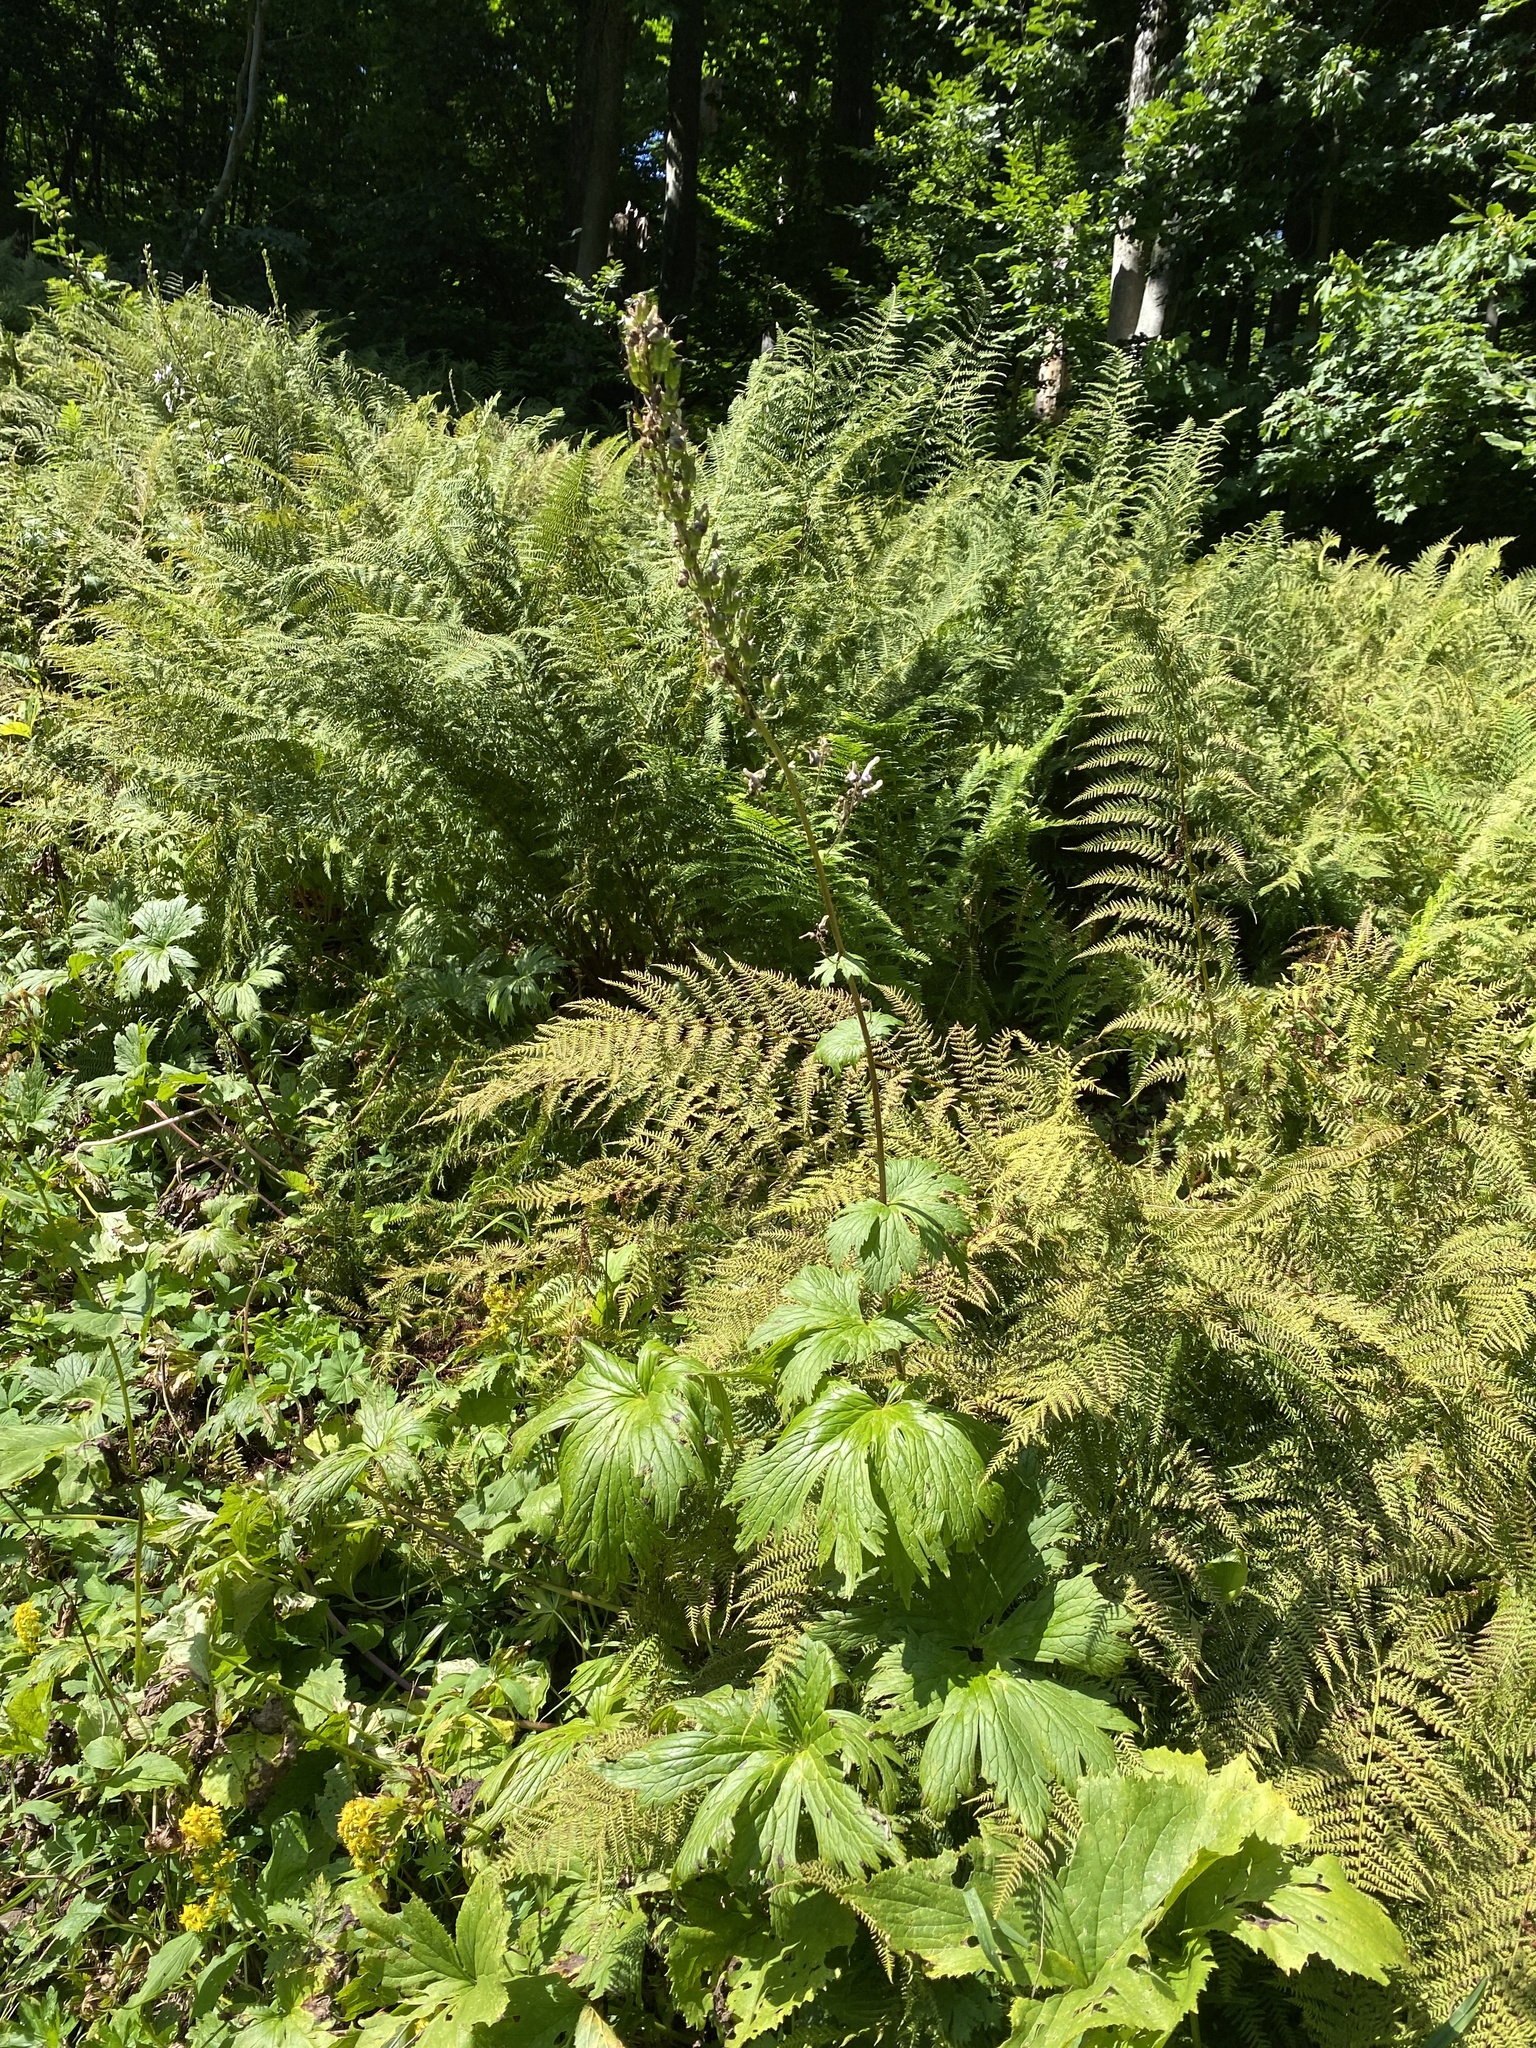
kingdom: Plantae
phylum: Tracheophyta
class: Magnoliopsida
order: Ranunculales
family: Ranunculaceae
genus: Aconitum
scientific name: Aconitum orientale
